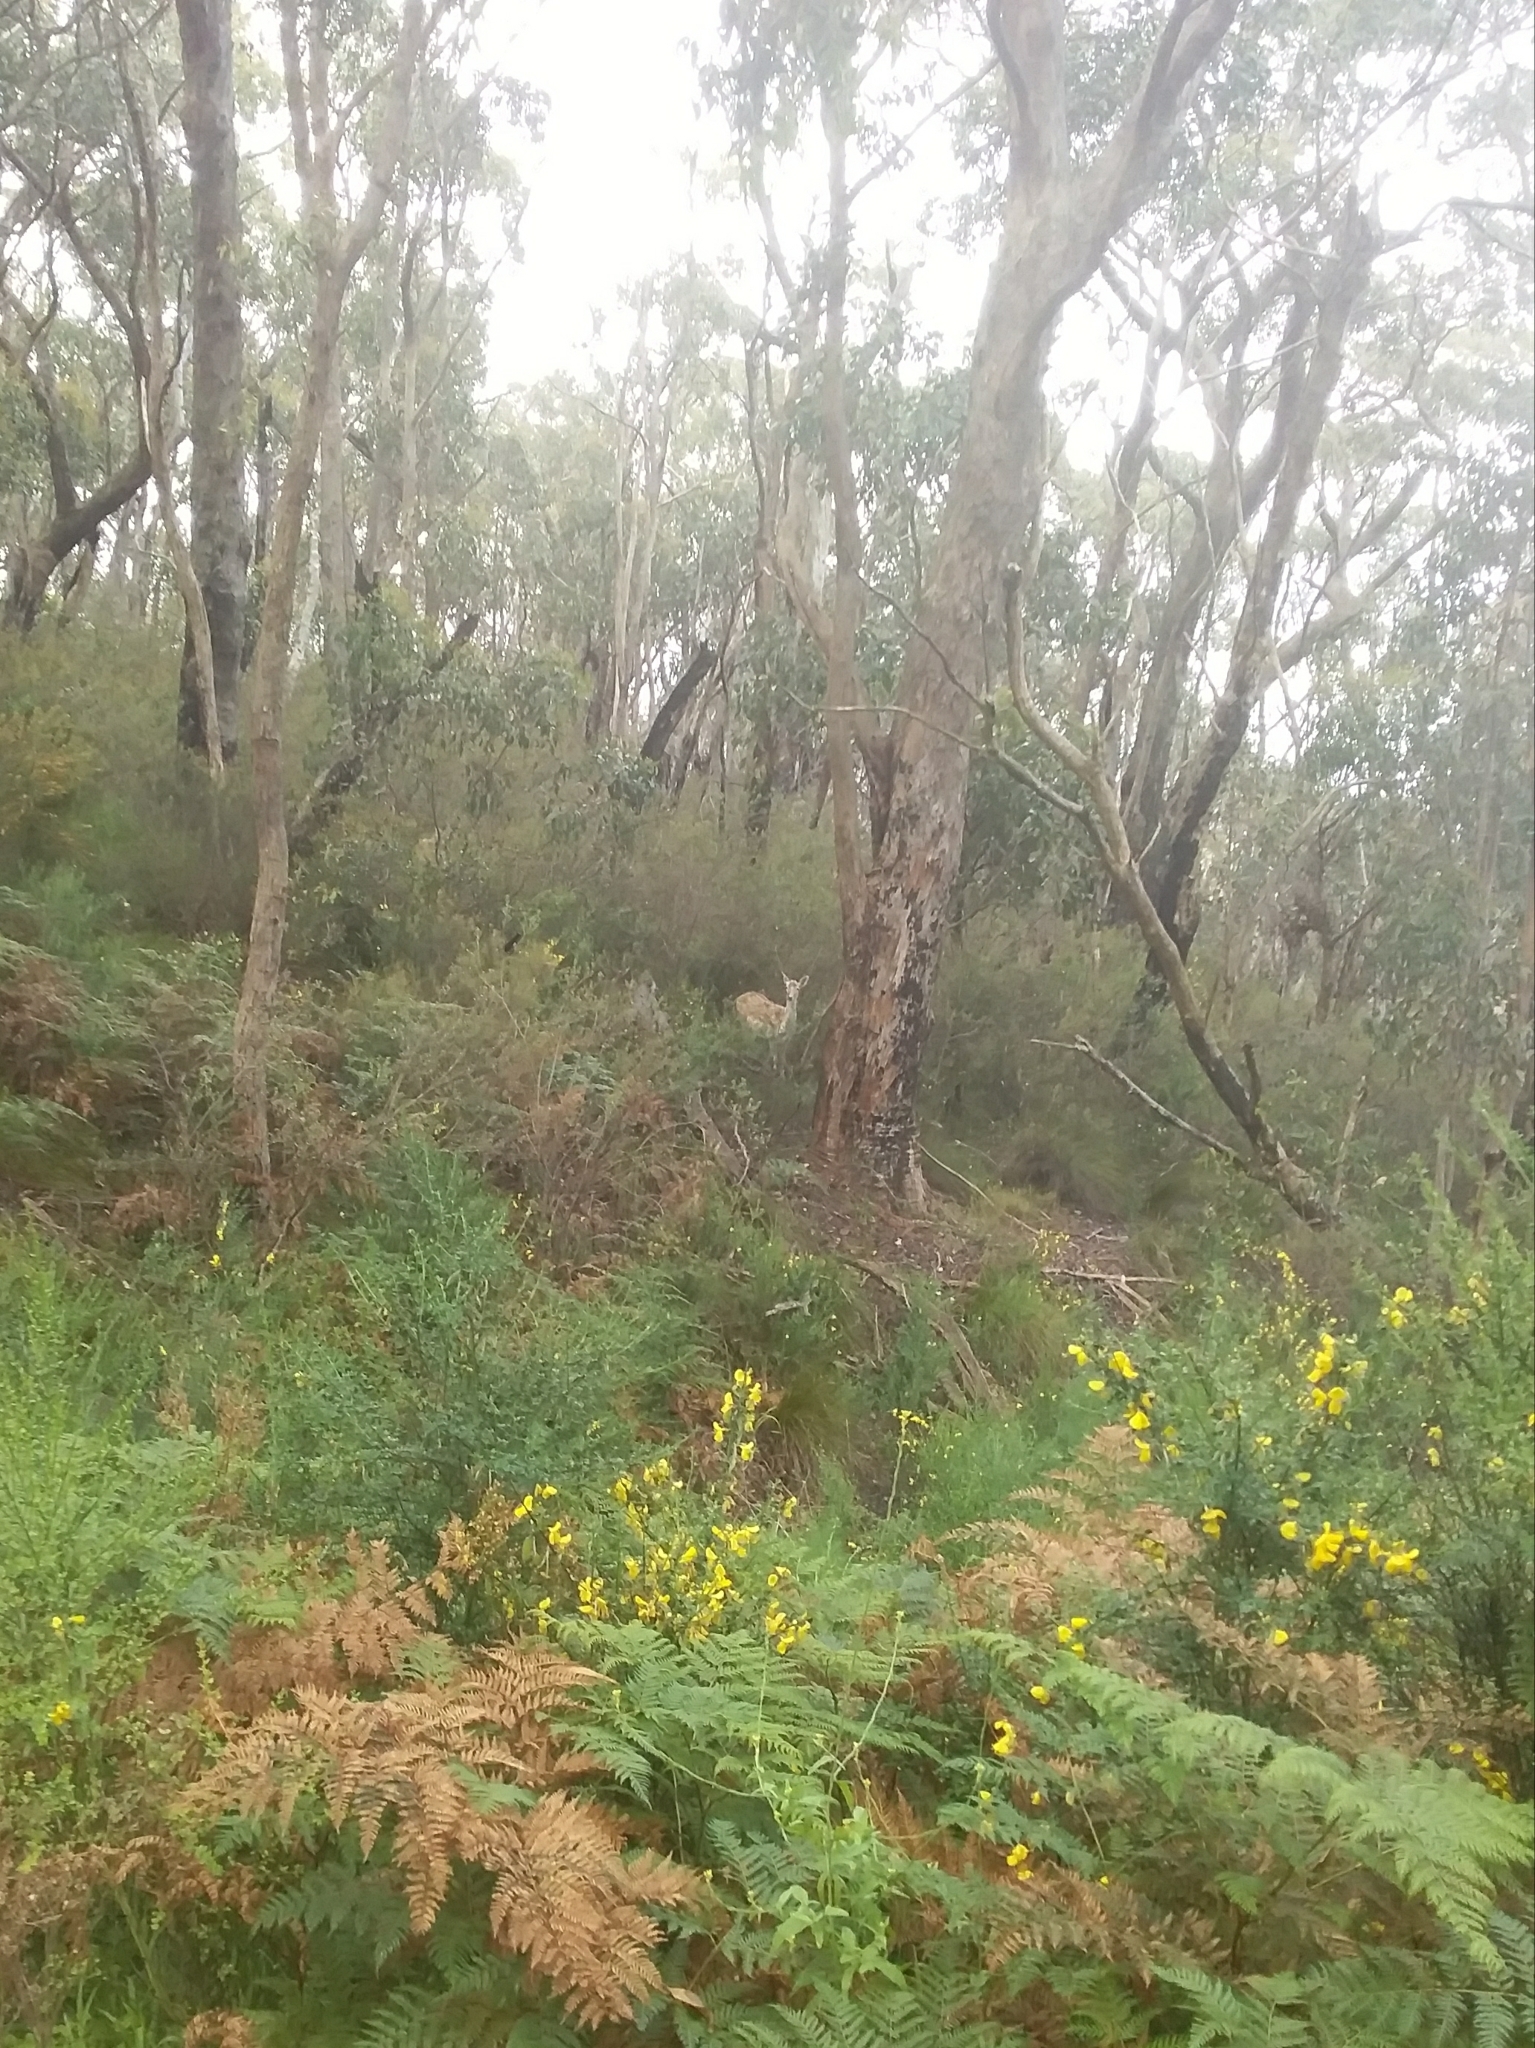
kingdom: Animalia
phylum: Chordata
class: Mammalia
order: Artiodactyla
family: Cervidae
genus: Dama
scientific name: Dama dama
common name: Fallow deer
